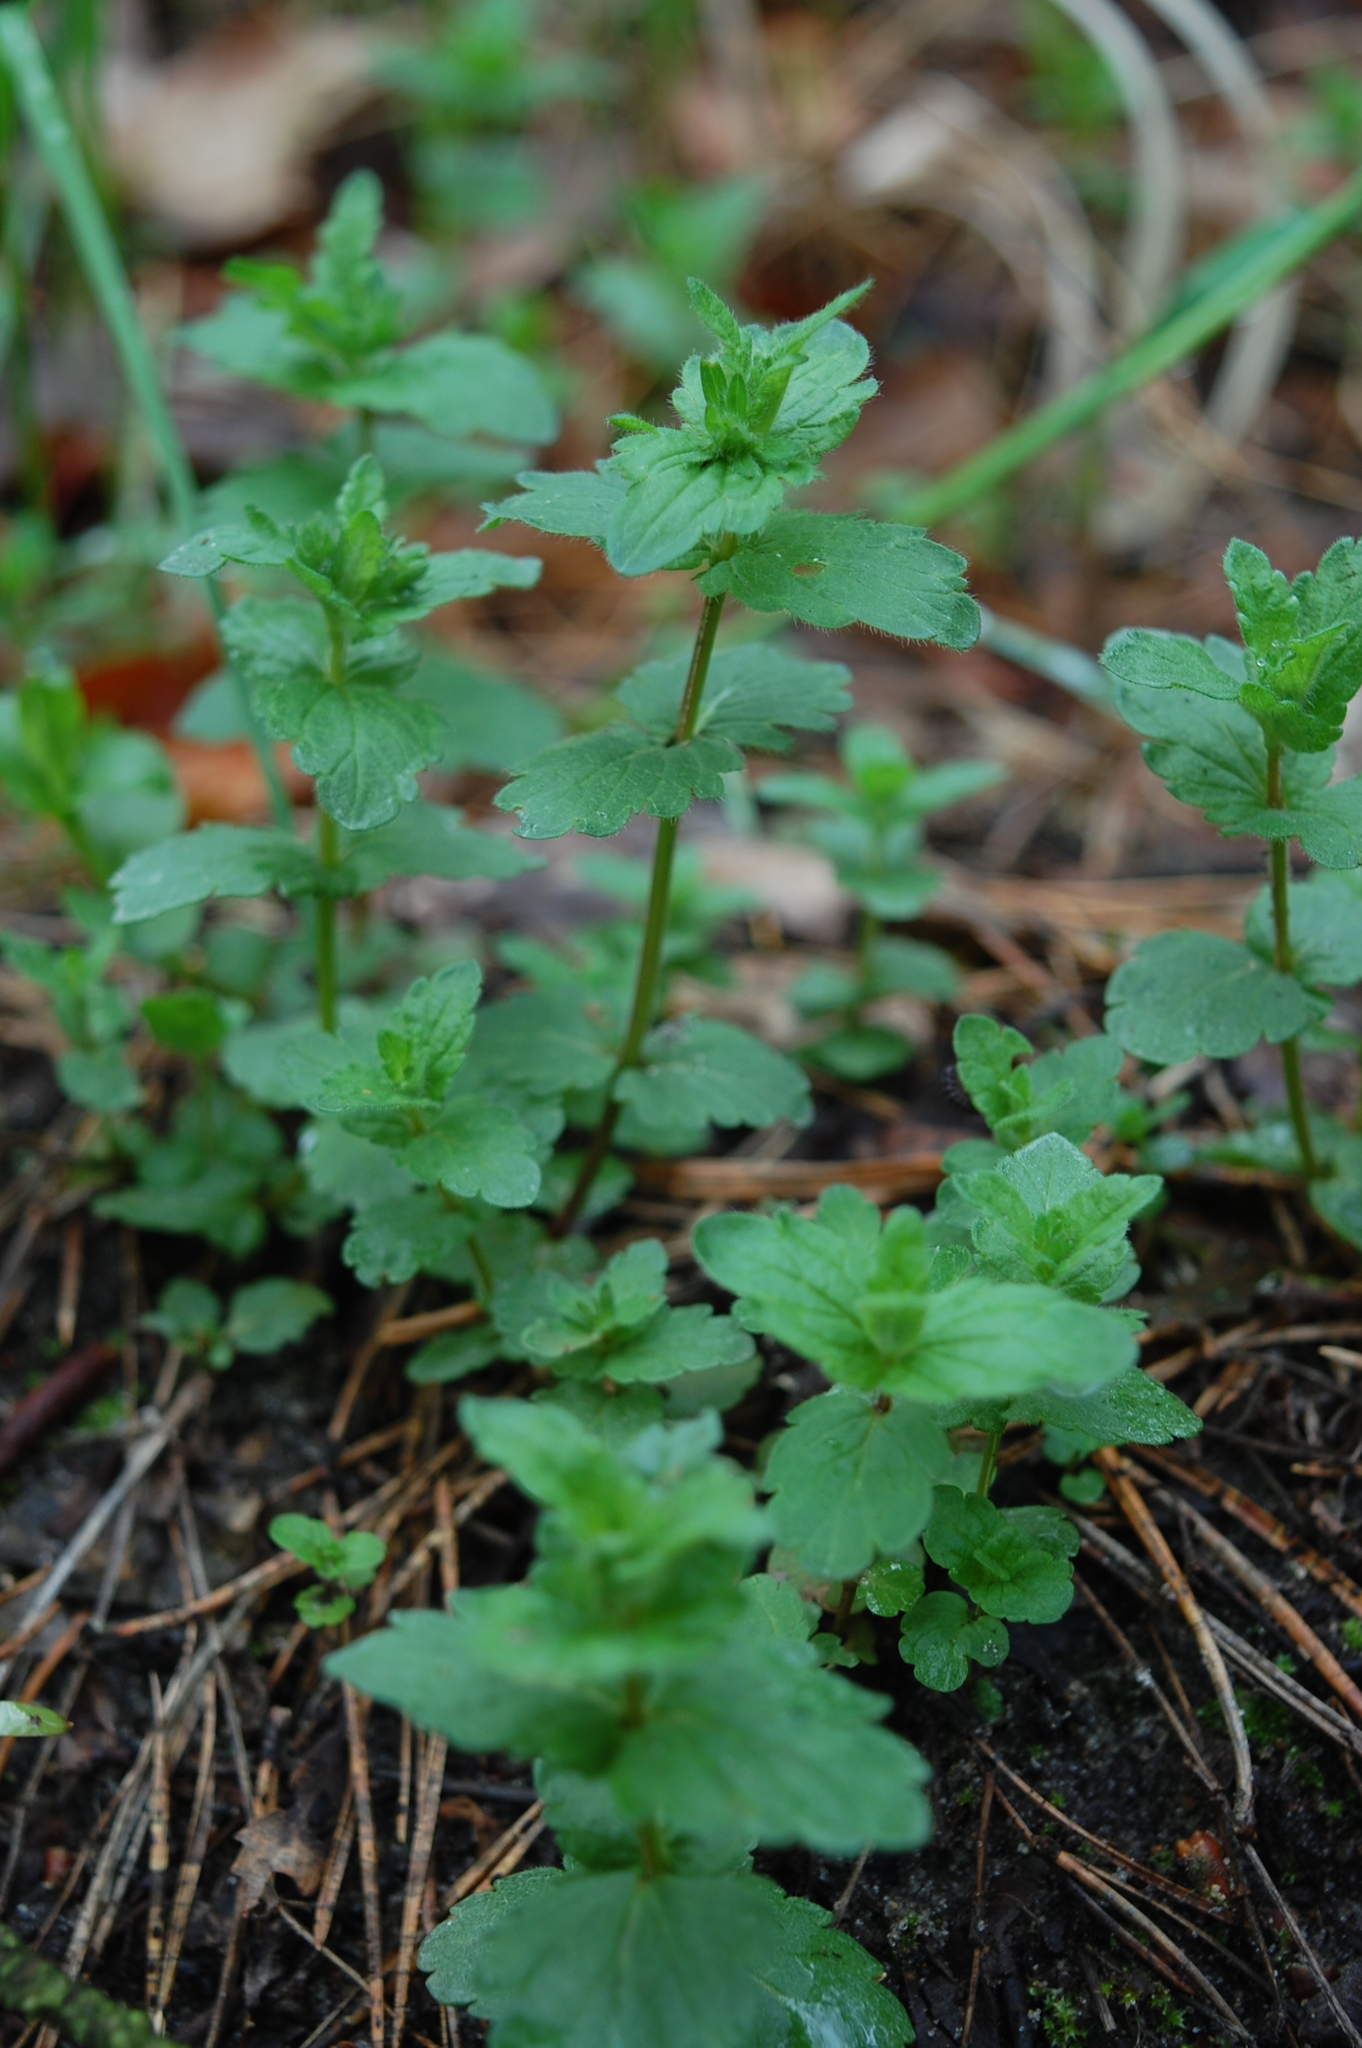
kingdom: Plantae
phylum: Tracheophyta
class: Magnoliopsida
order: Lamiales
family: Plantaginaceae
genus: Veronica
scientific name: Veronica chamaedrys
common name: Germander speedwell
